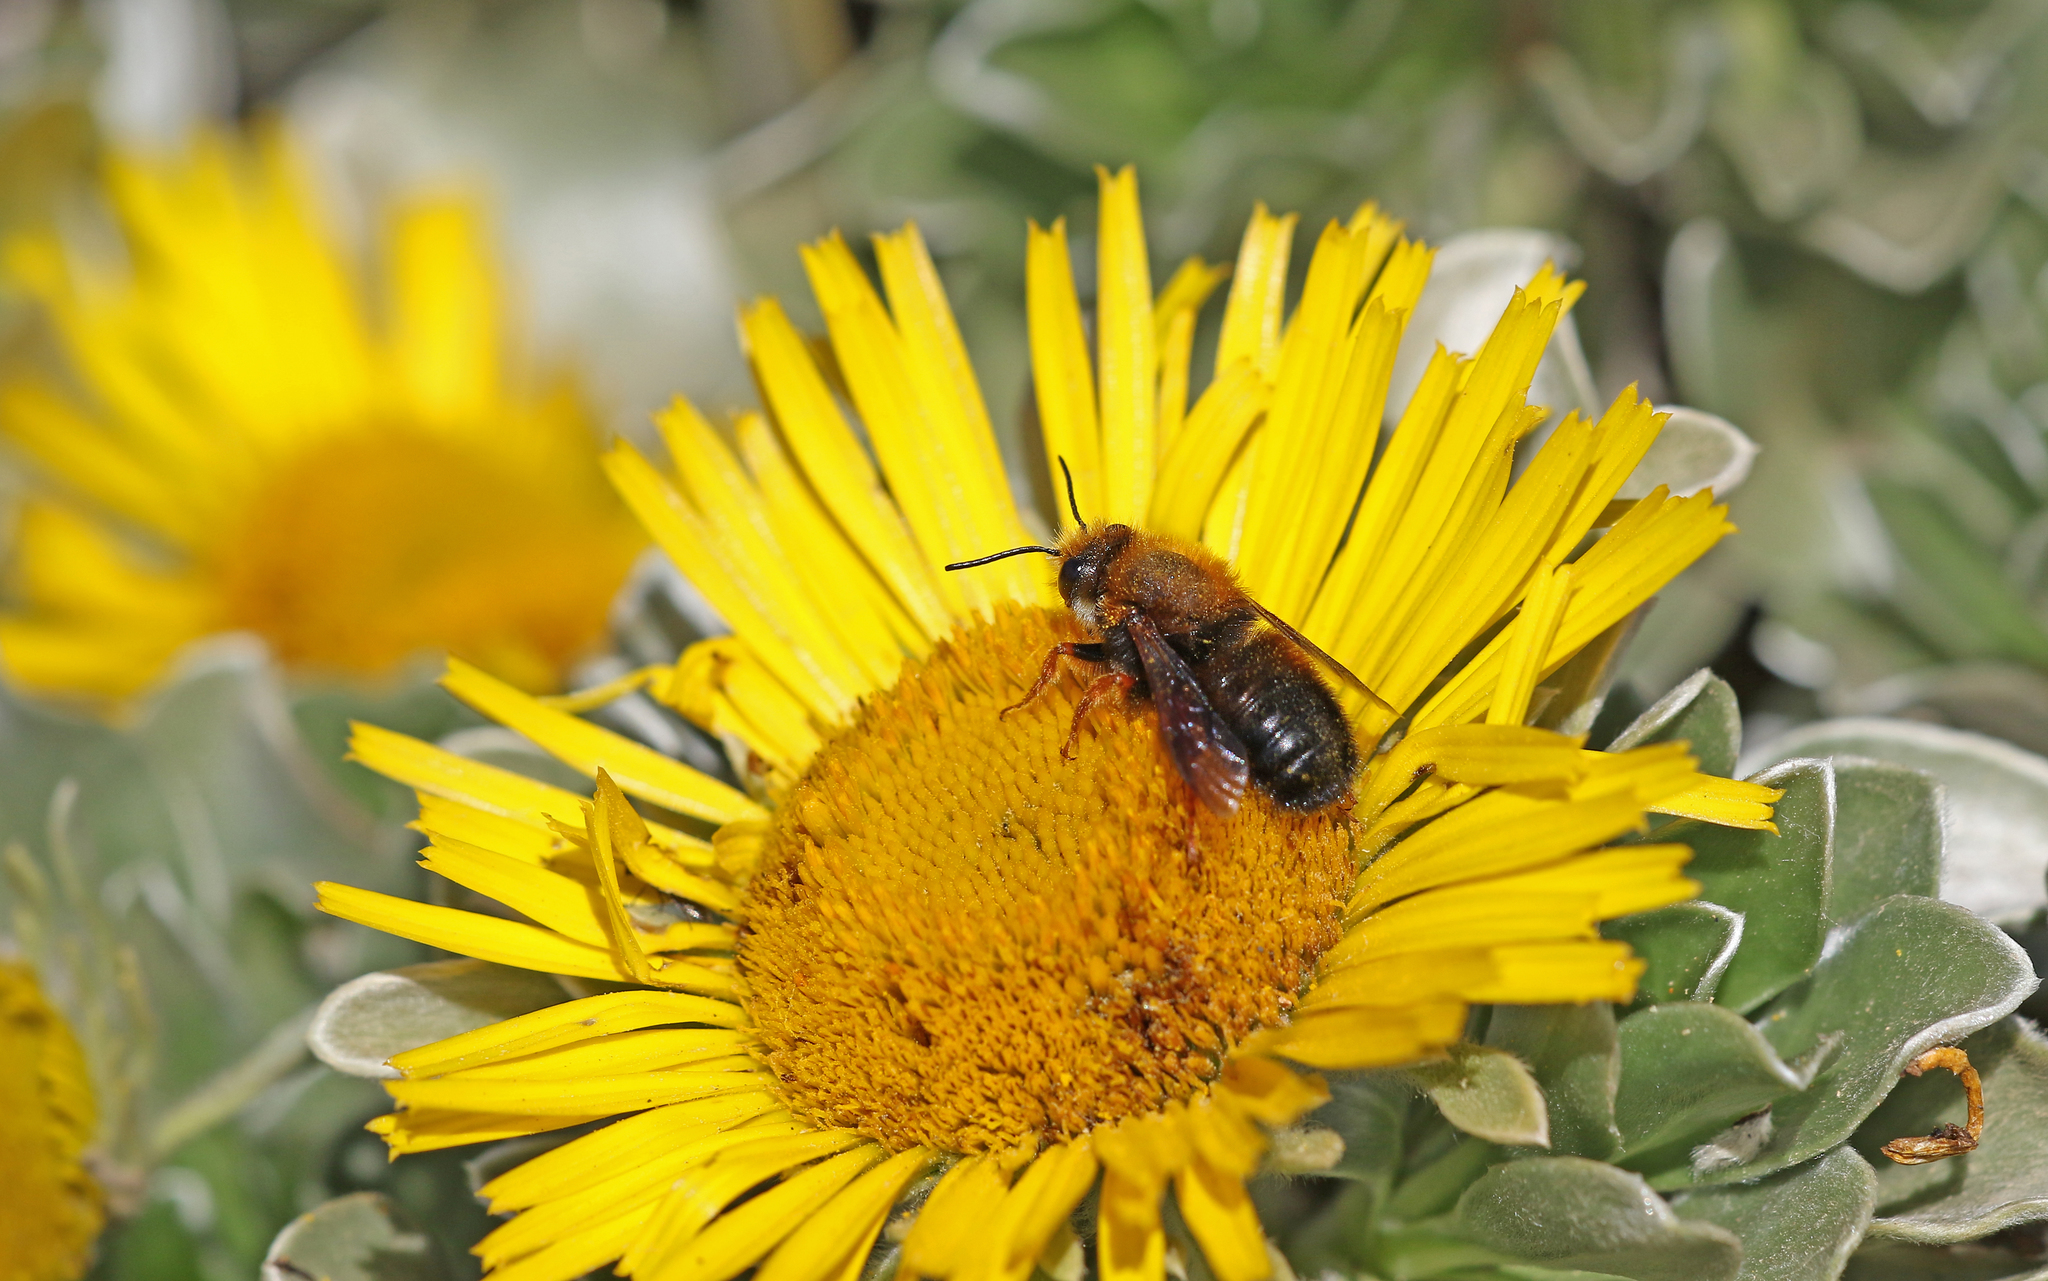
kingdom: Animalia
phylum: Arthropoda
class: Insecta
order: Hymenoptera
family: Megachilidae
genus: Megachile
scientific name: Megachile sicula
